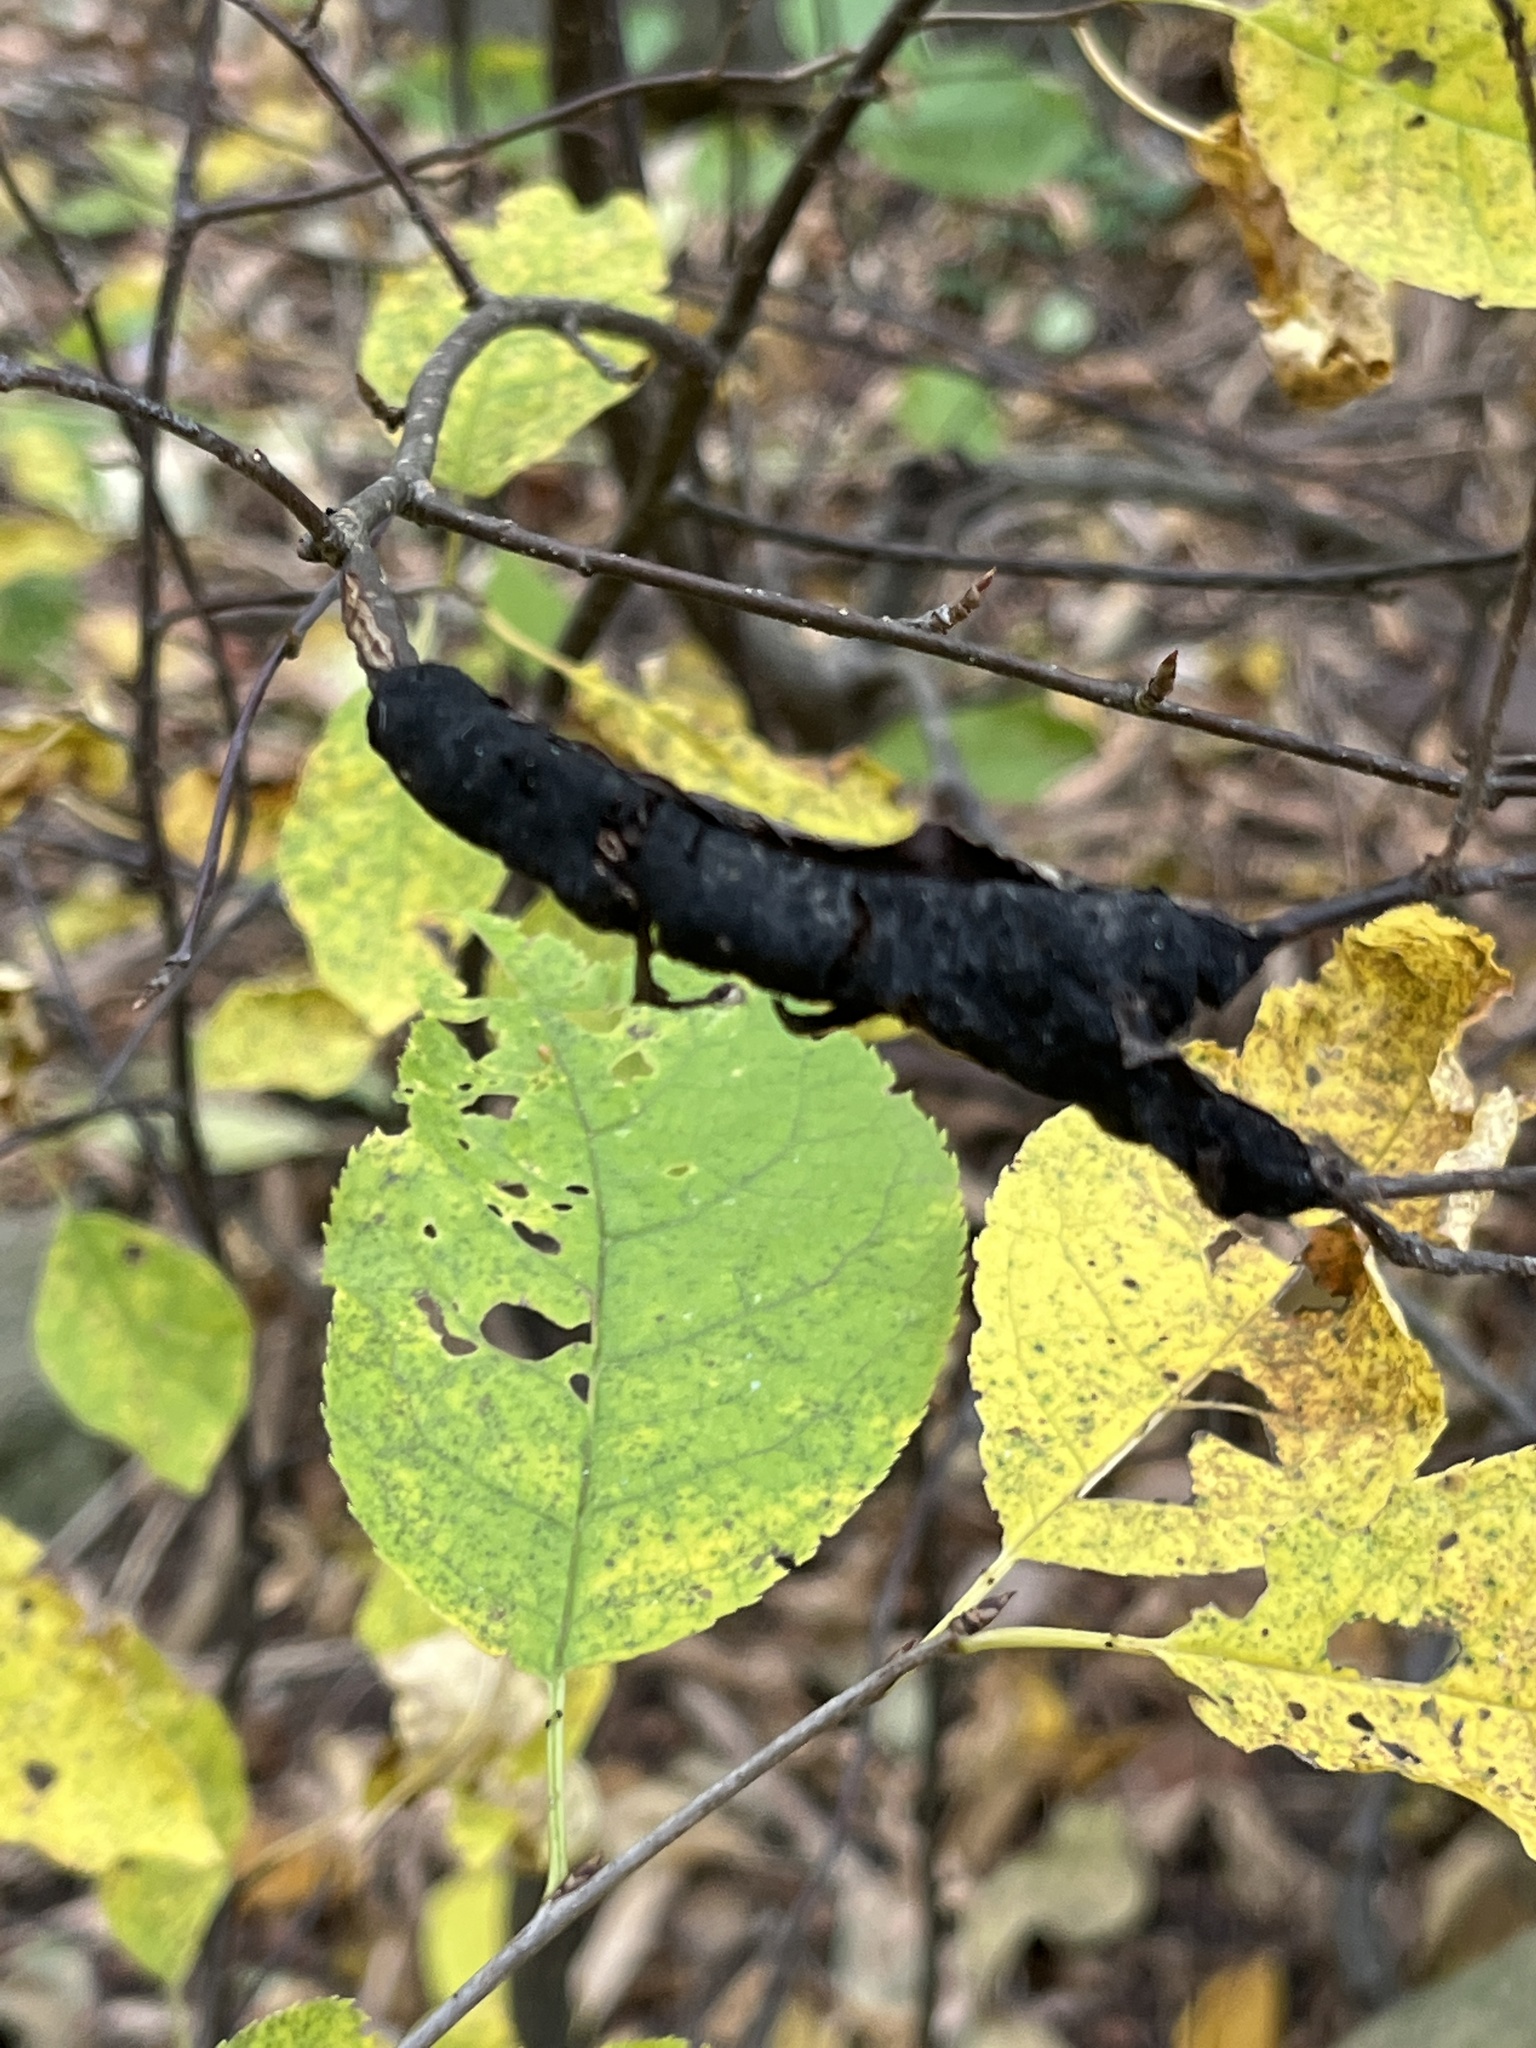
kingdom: Fungi
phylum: Ascomycota
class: Dothideomycetes
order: Venturiales
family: Venturiaceae
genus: Apiosporina
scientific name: Apiosporina morbosa
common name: Black knot
